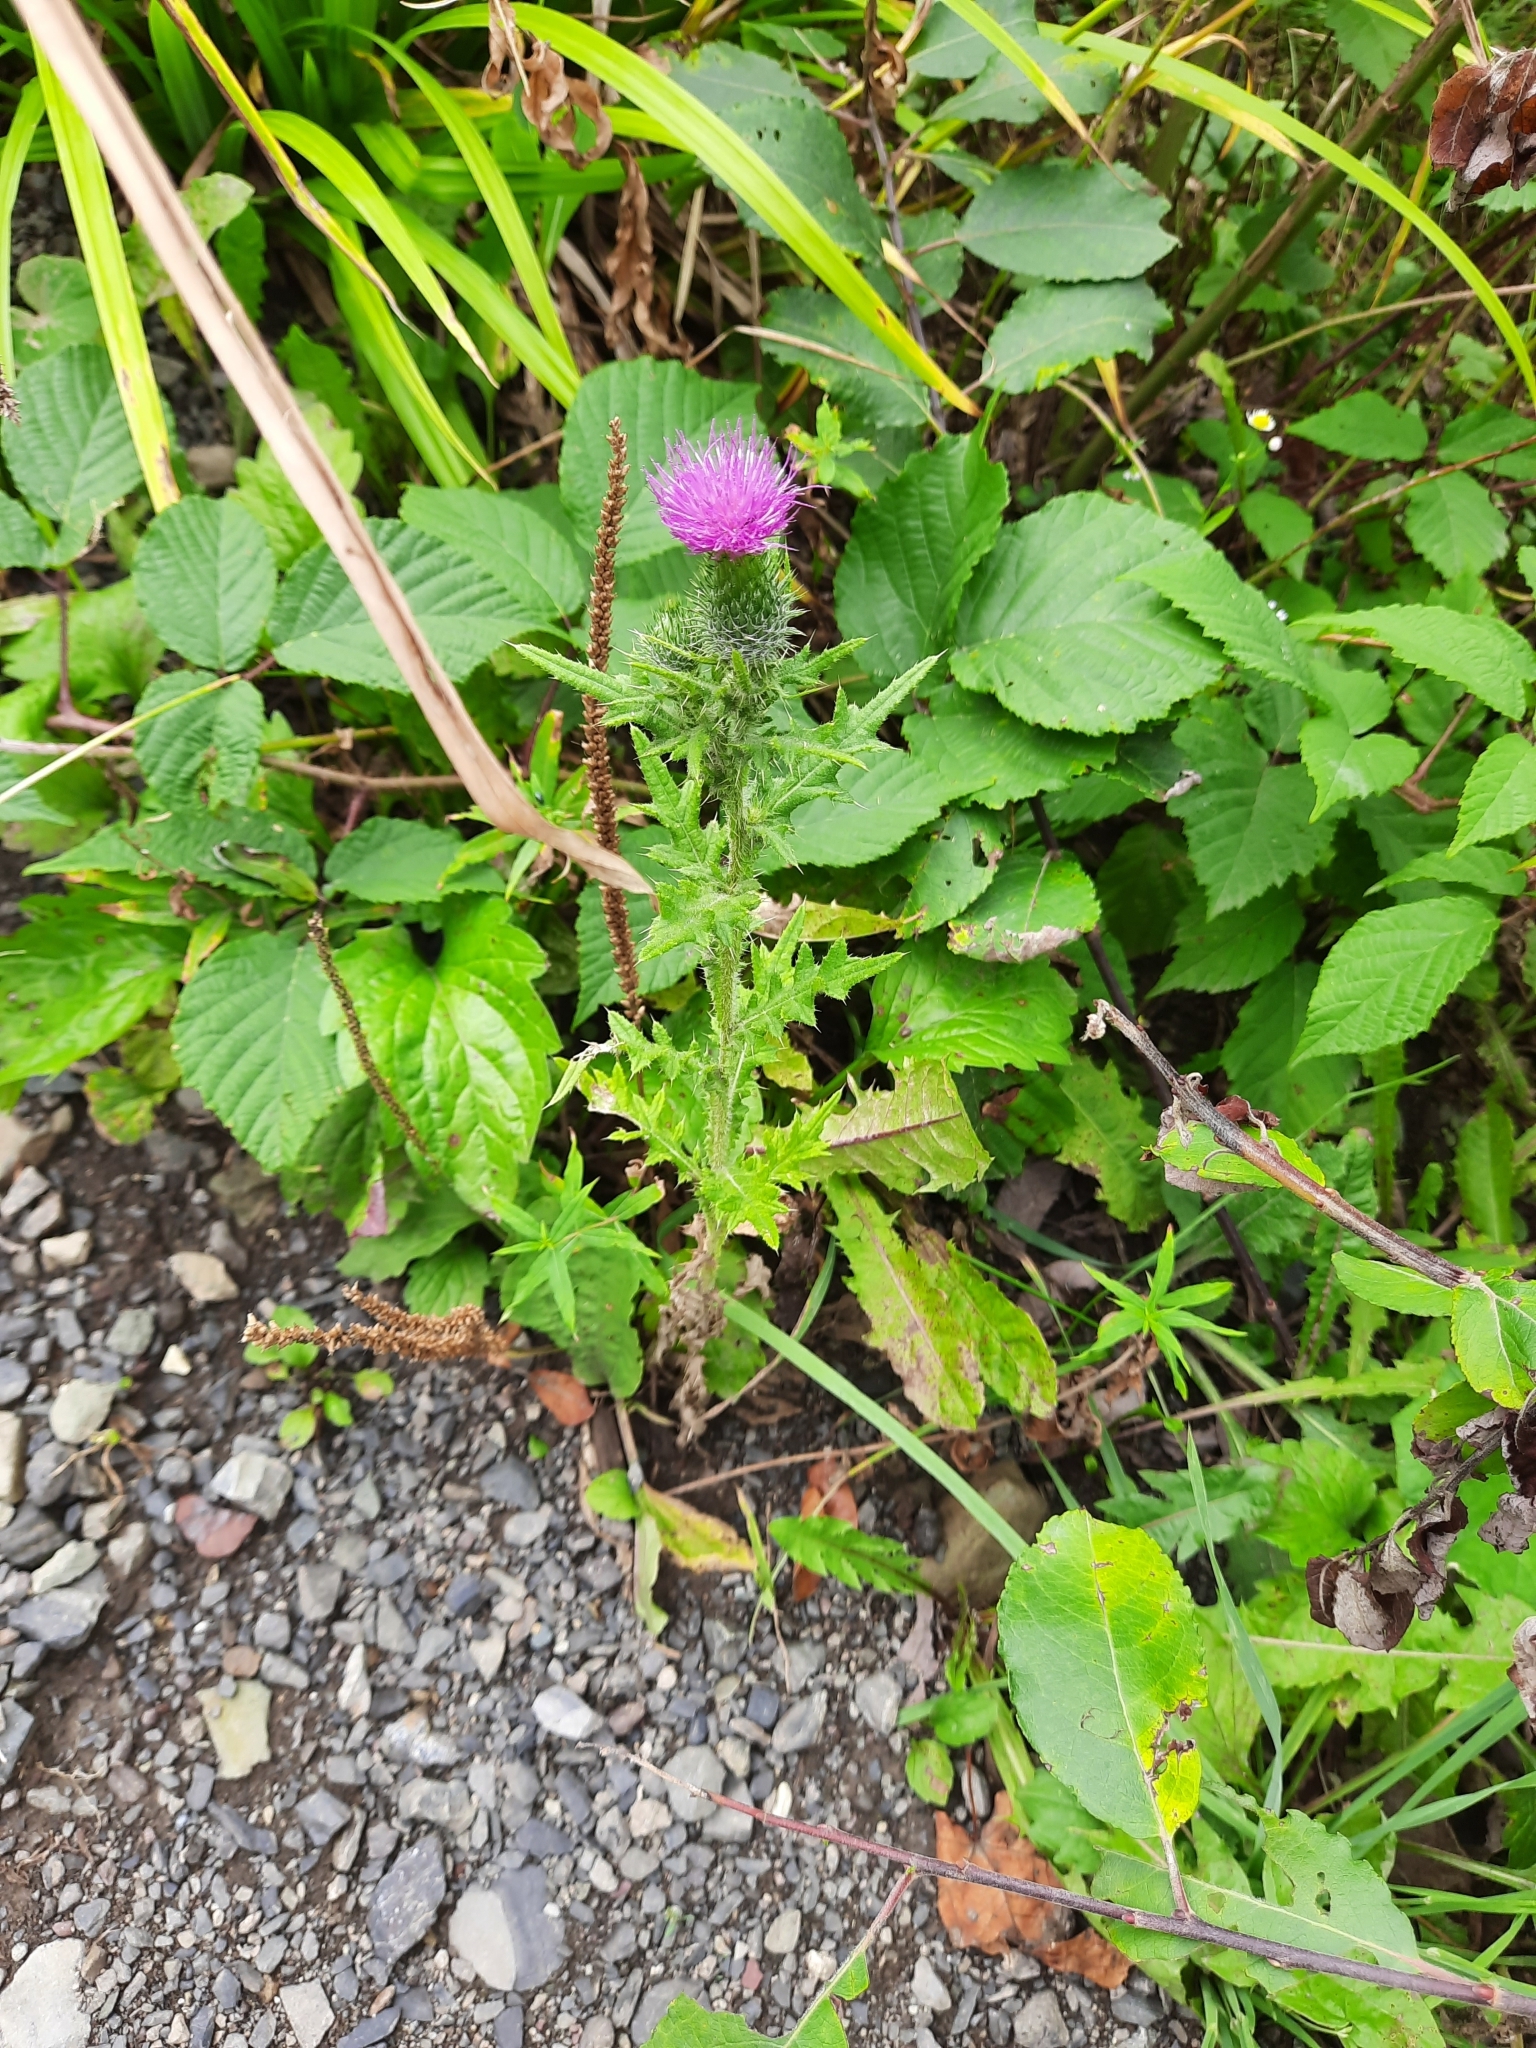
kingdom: Plantae
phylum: Tracheophyta
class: Magnoliopsida
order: Asterales
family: Asteraceae
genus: Cirsium
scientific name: Cirsium vulgare
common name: Bull thistle
